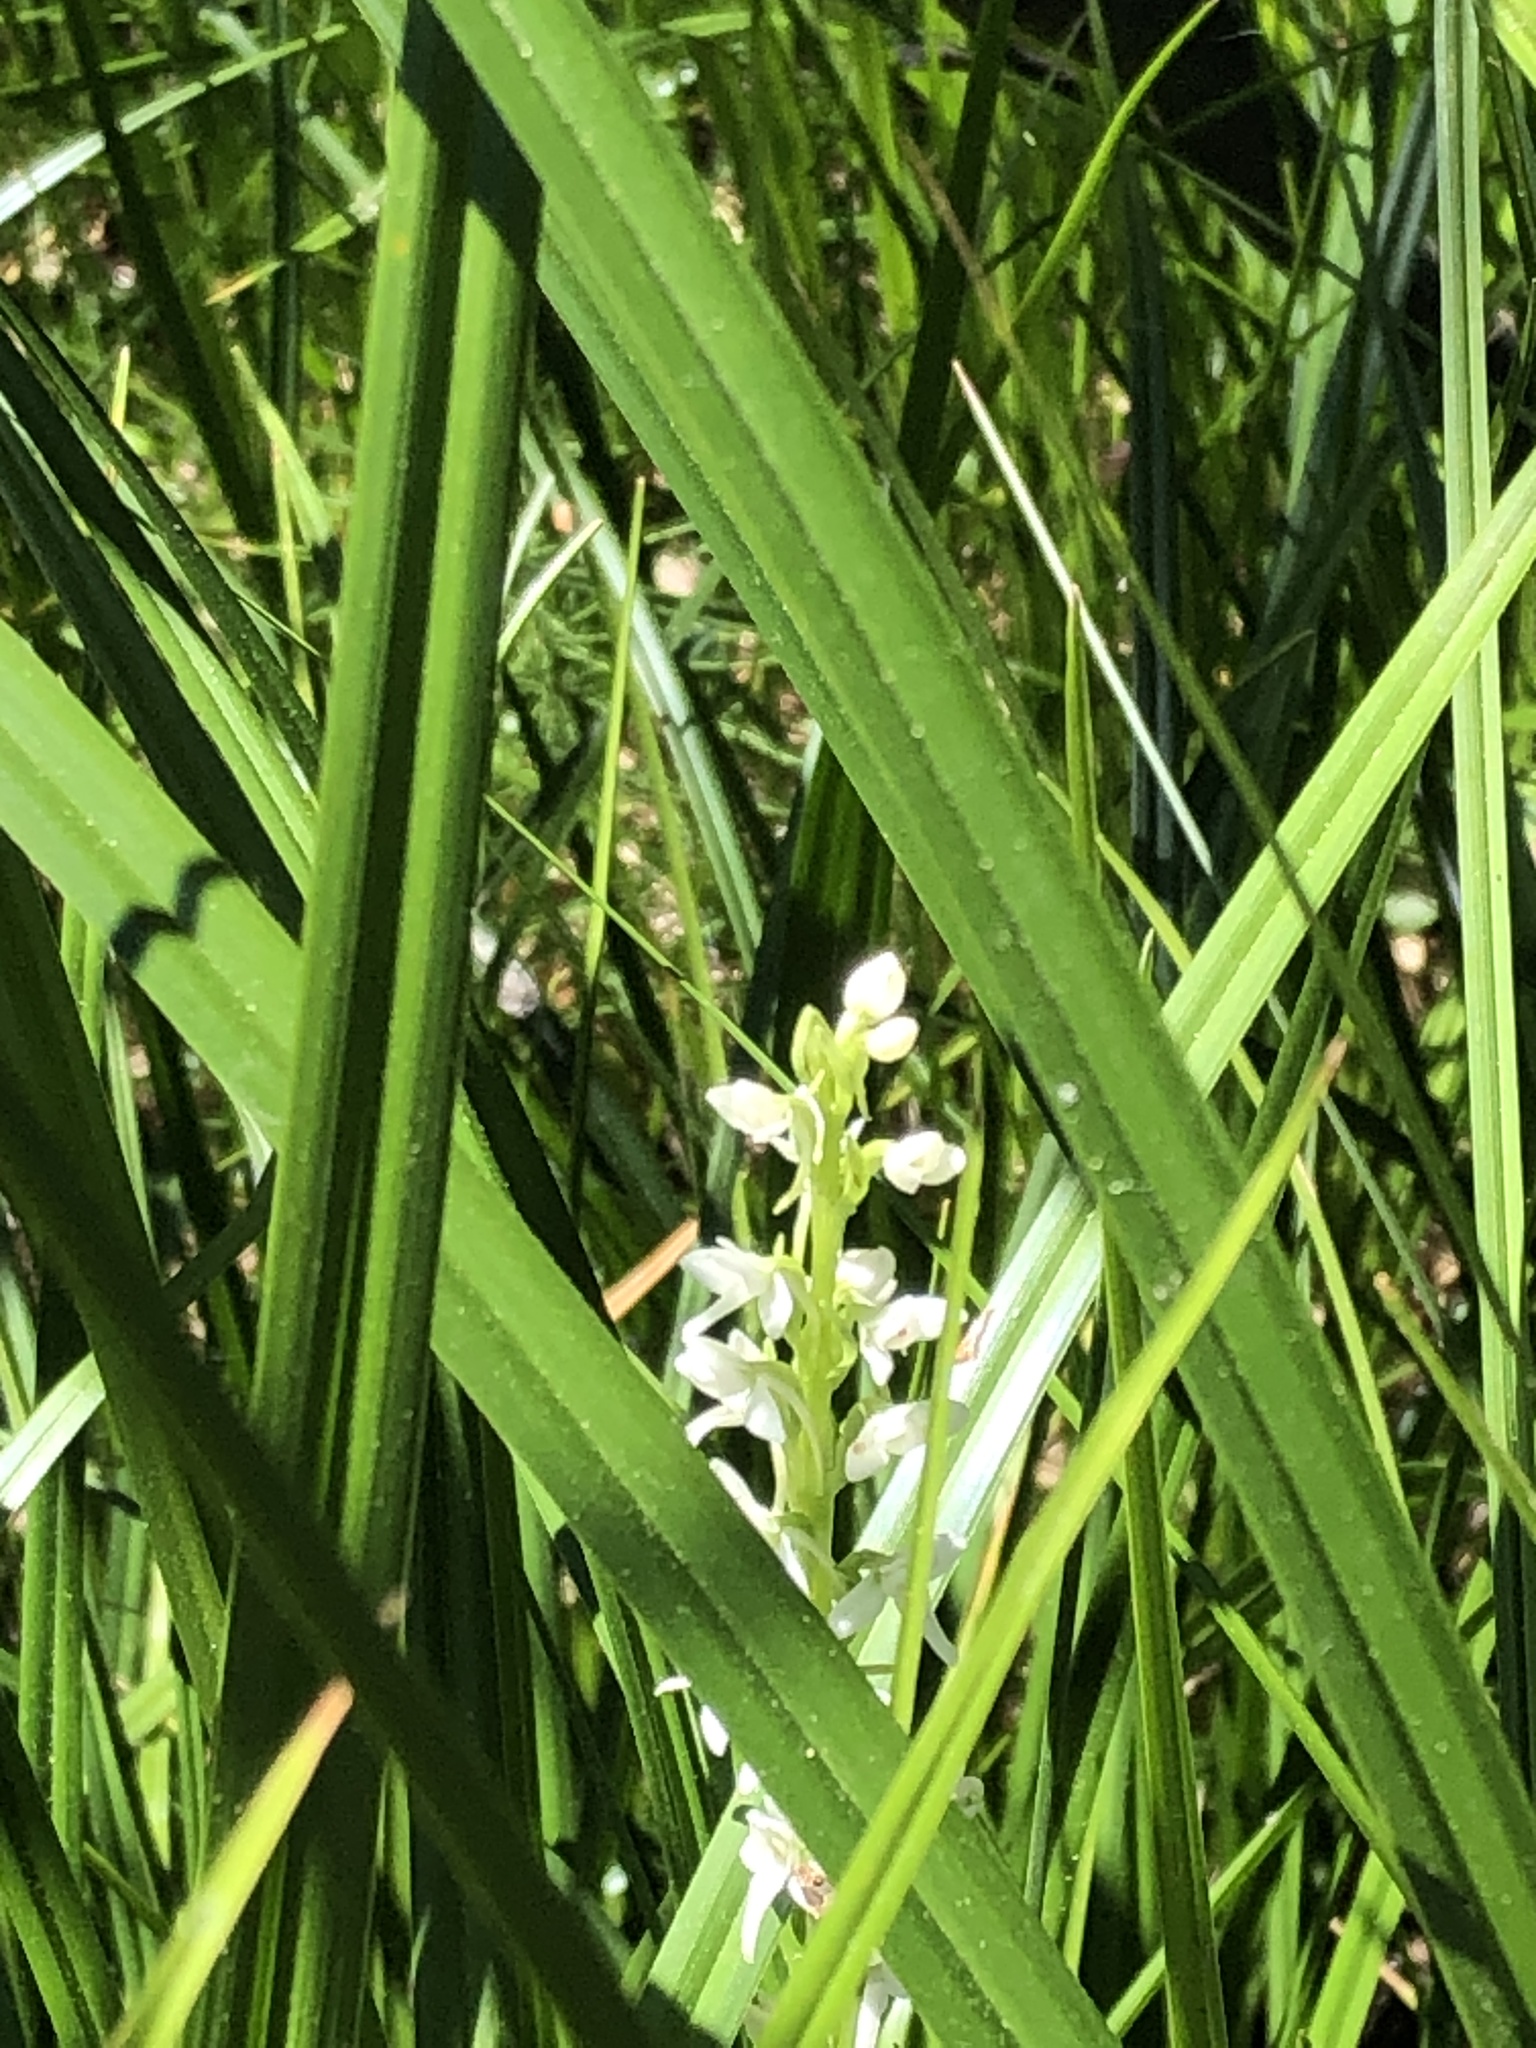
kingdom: Plantae
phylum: Tracheophyta
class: Liliopsida
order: Asparagales
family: Orchidaceae
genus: Platanthera
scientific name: Platanthera dilatata
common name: Bog candles
